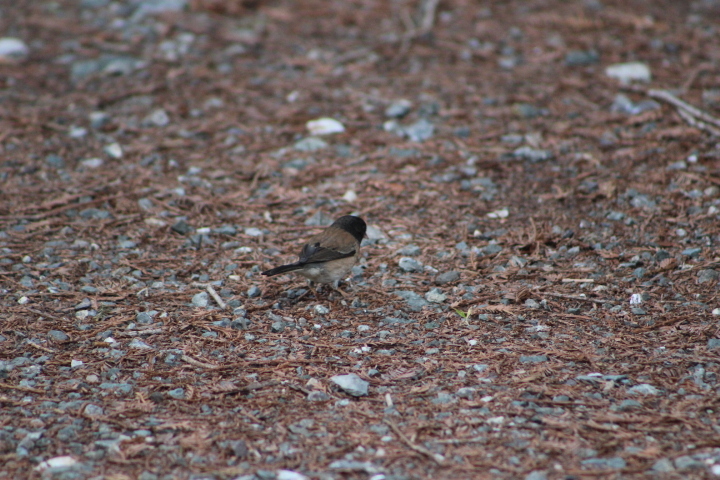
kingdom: Animalia
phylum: Chordata
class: Aves
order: Passeriformes
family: Passerellidae
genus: Junco
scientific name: Junco hyemalis
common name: Dark-eyed junco
